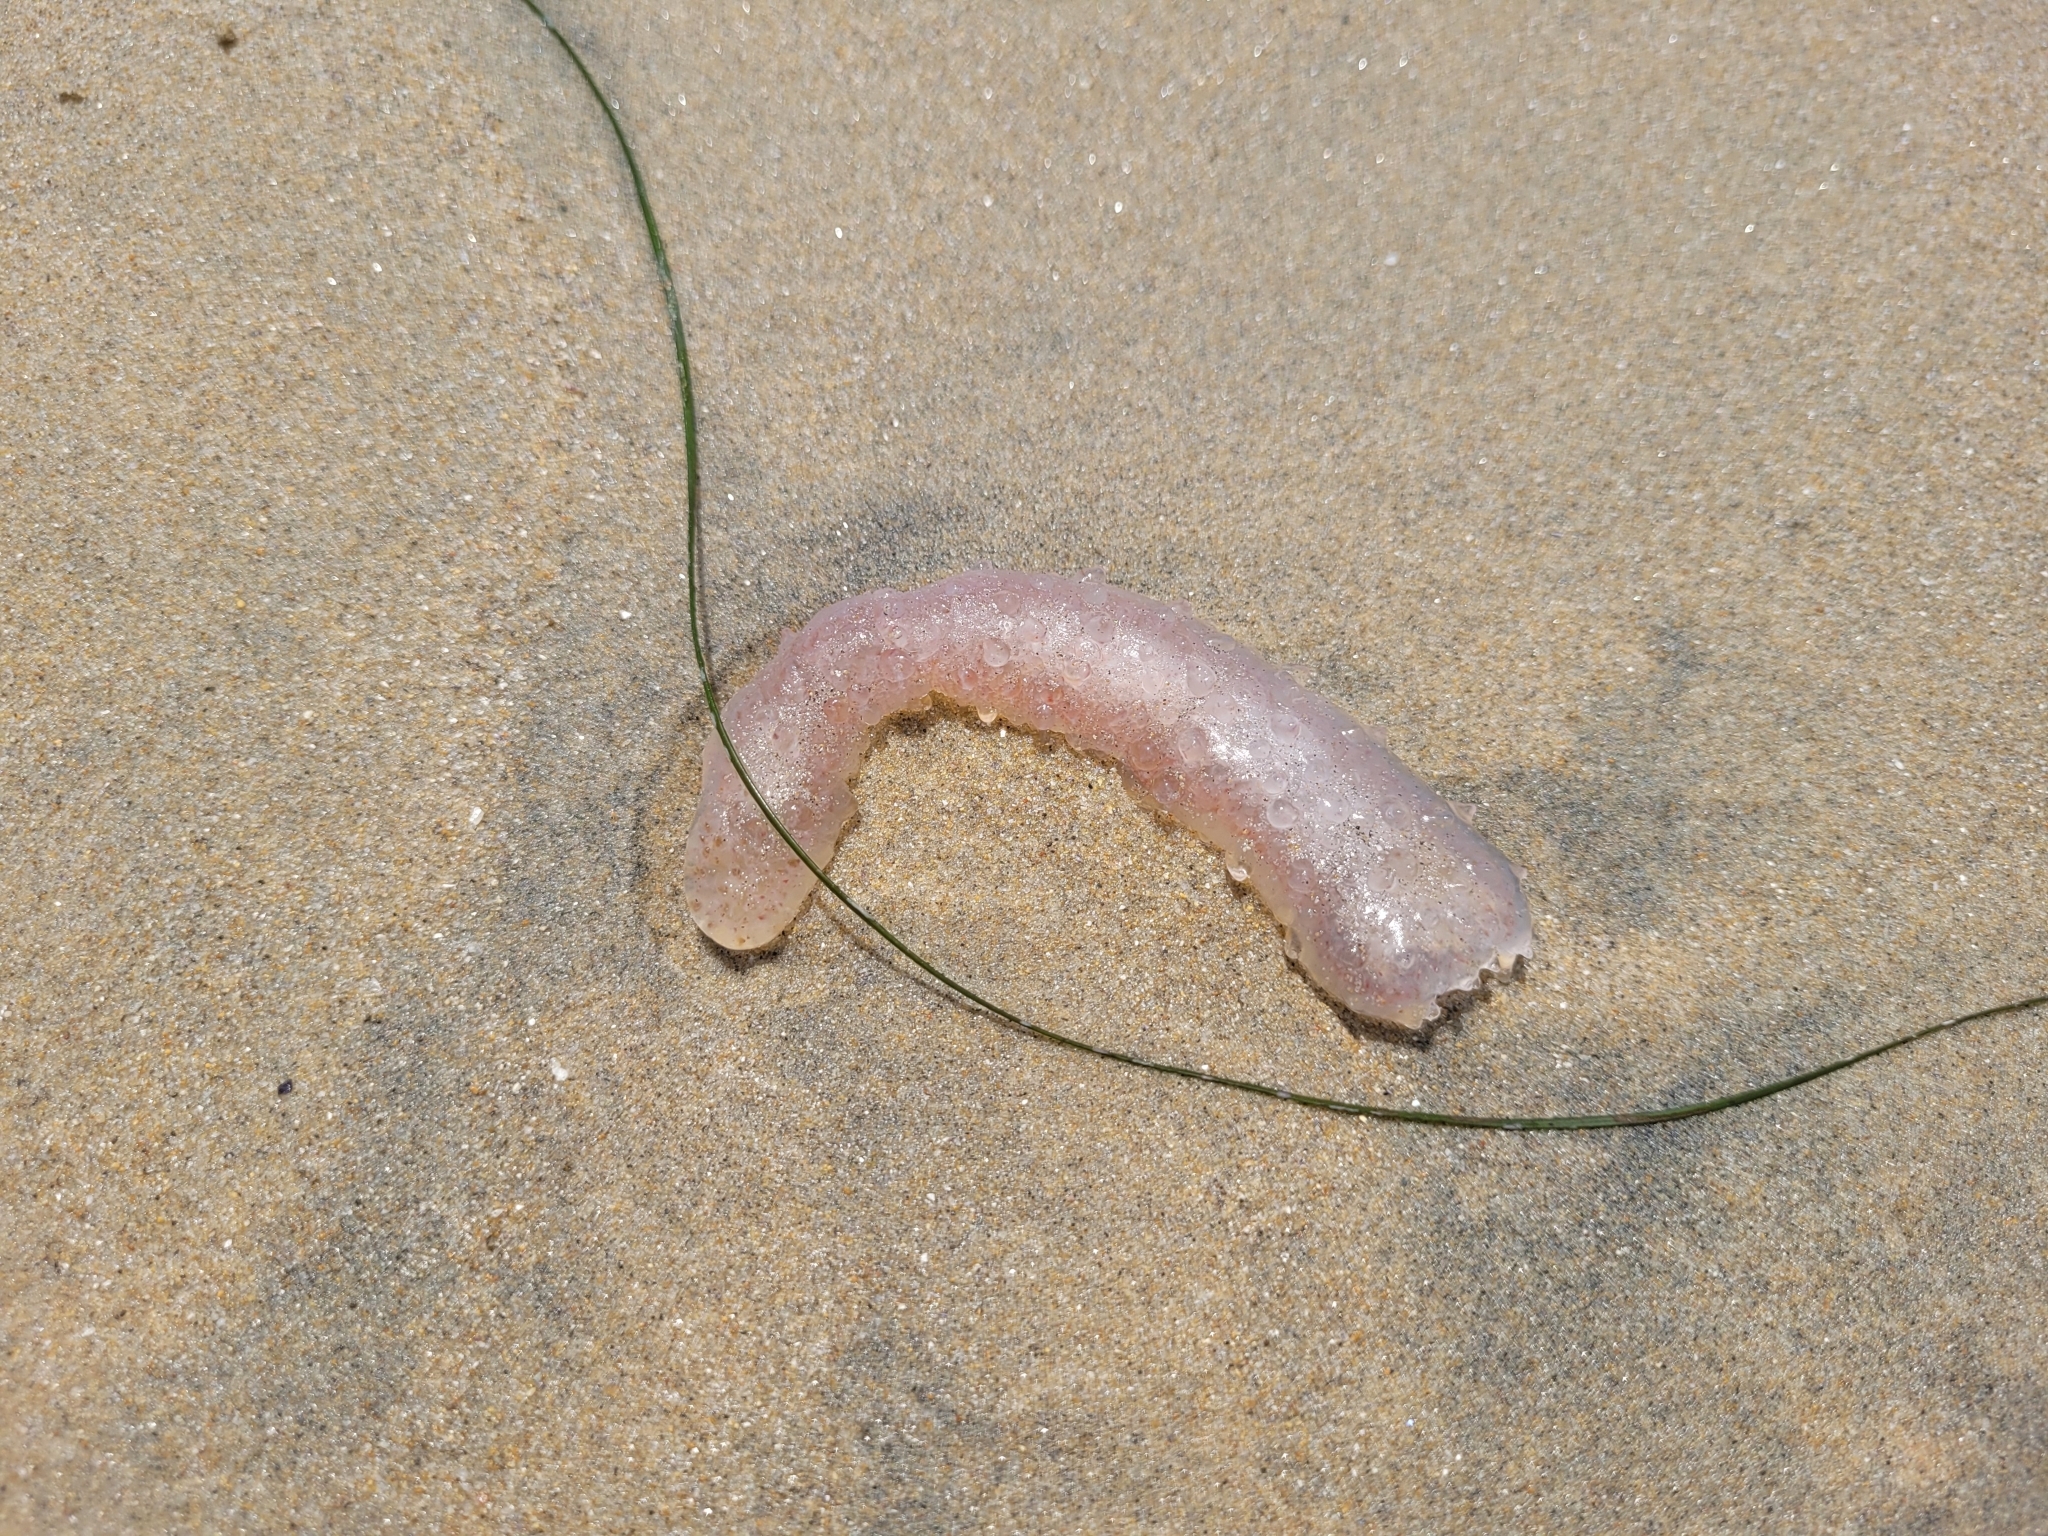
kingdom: Animalia
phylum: Chordata
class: Thaliacea
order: Pyrosomatida
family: Pyrosomatidae
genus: Pyrosoma
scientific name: Pyrosoma atlanticum
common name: Atlantic pyrosomes
